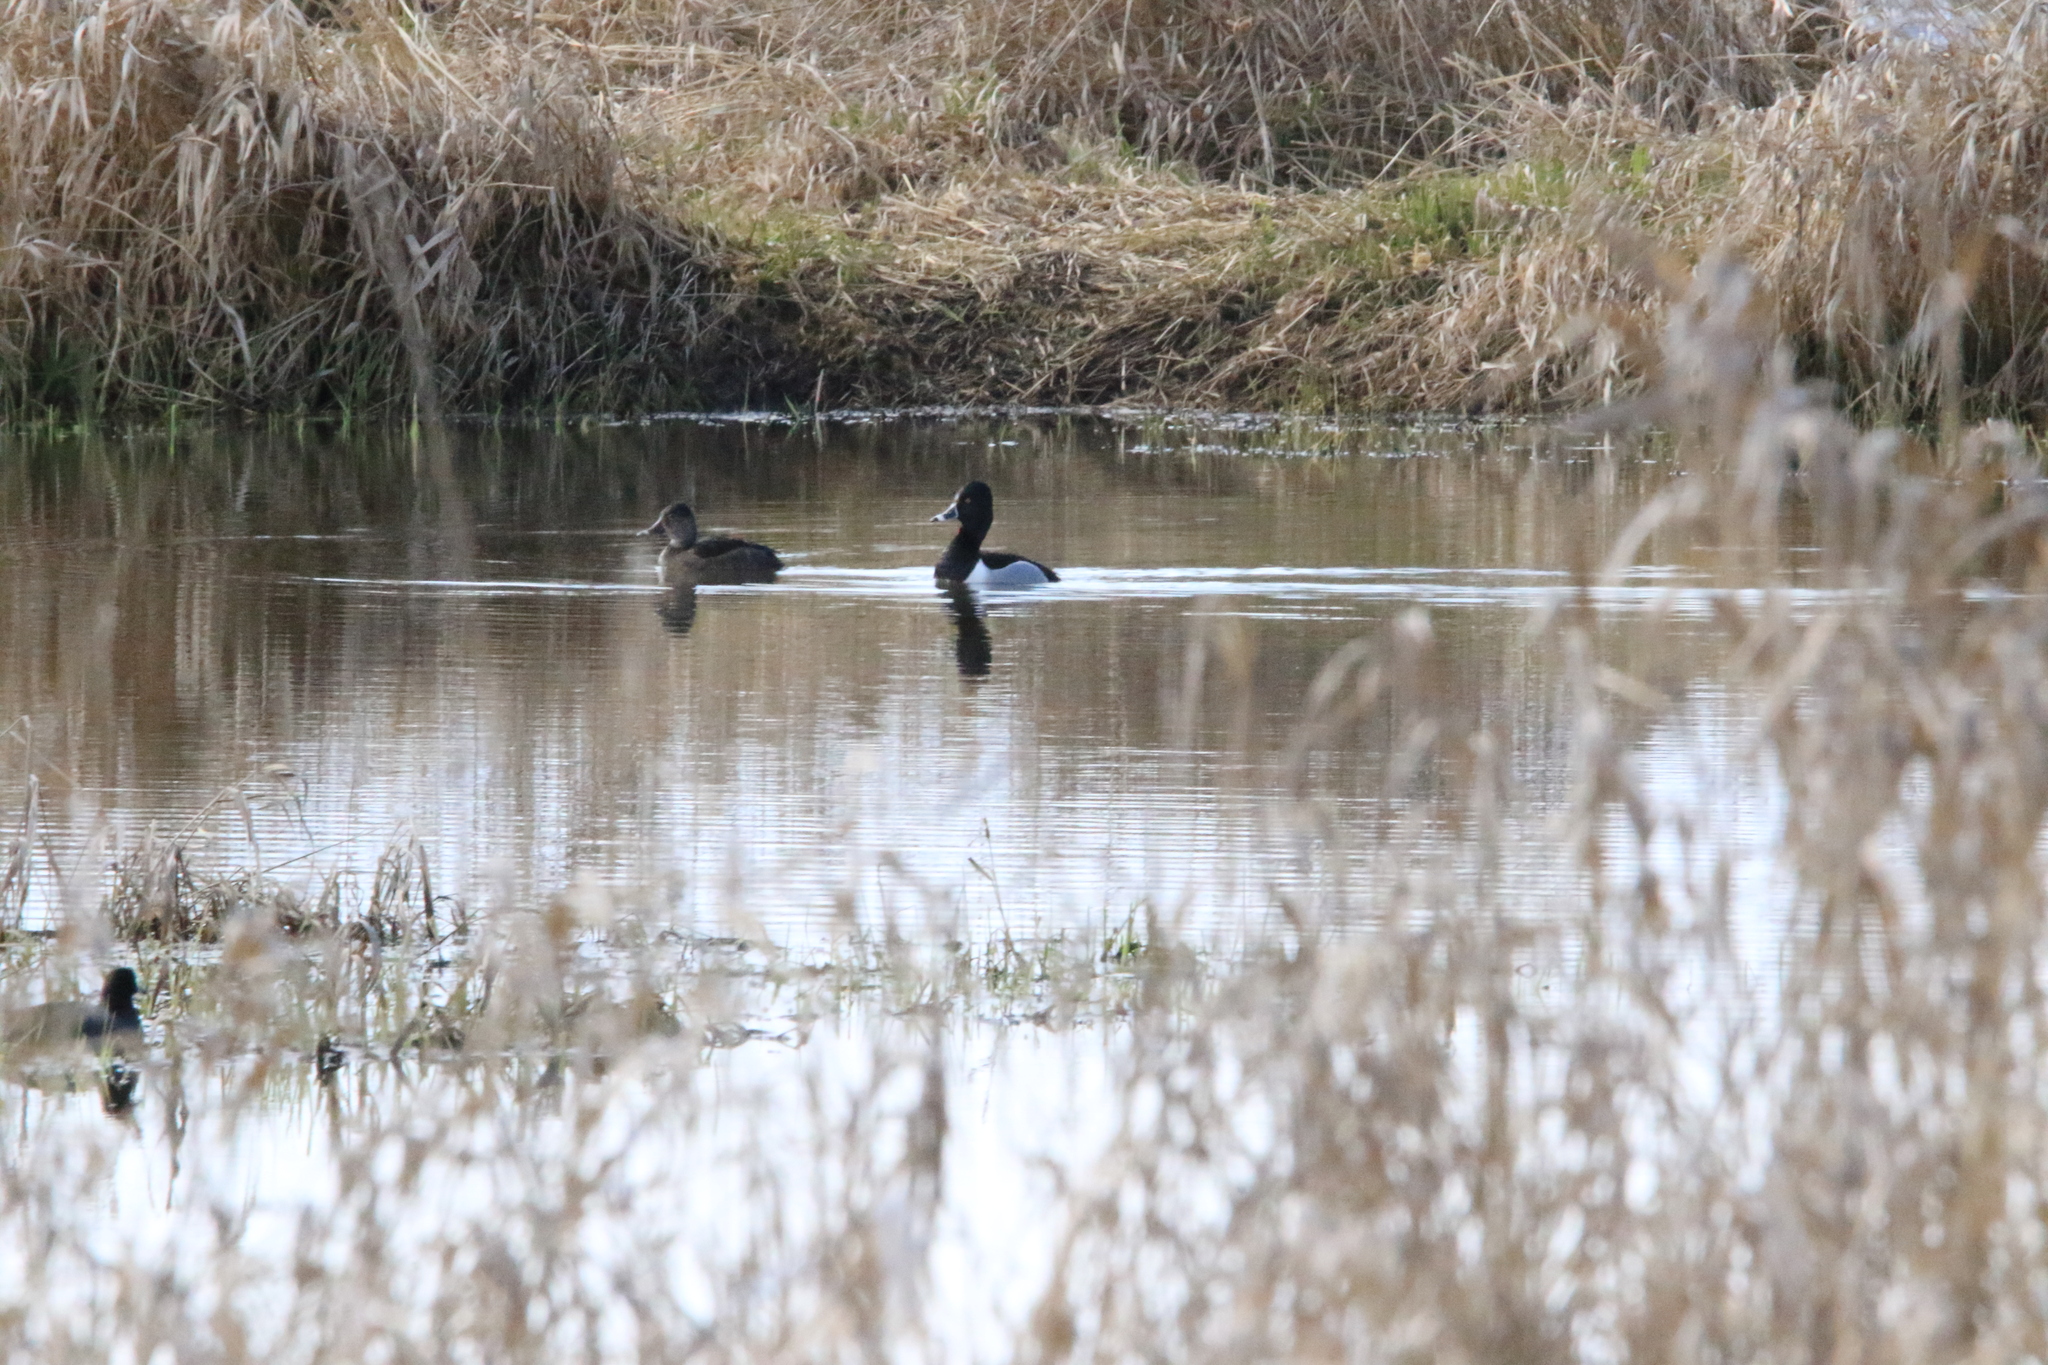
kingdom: Animalia
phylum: Chordata
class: Aves
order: Anseriformes
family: Anatidae
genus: Aythya
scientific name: Aythya collaris
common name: Ring-necked duck
